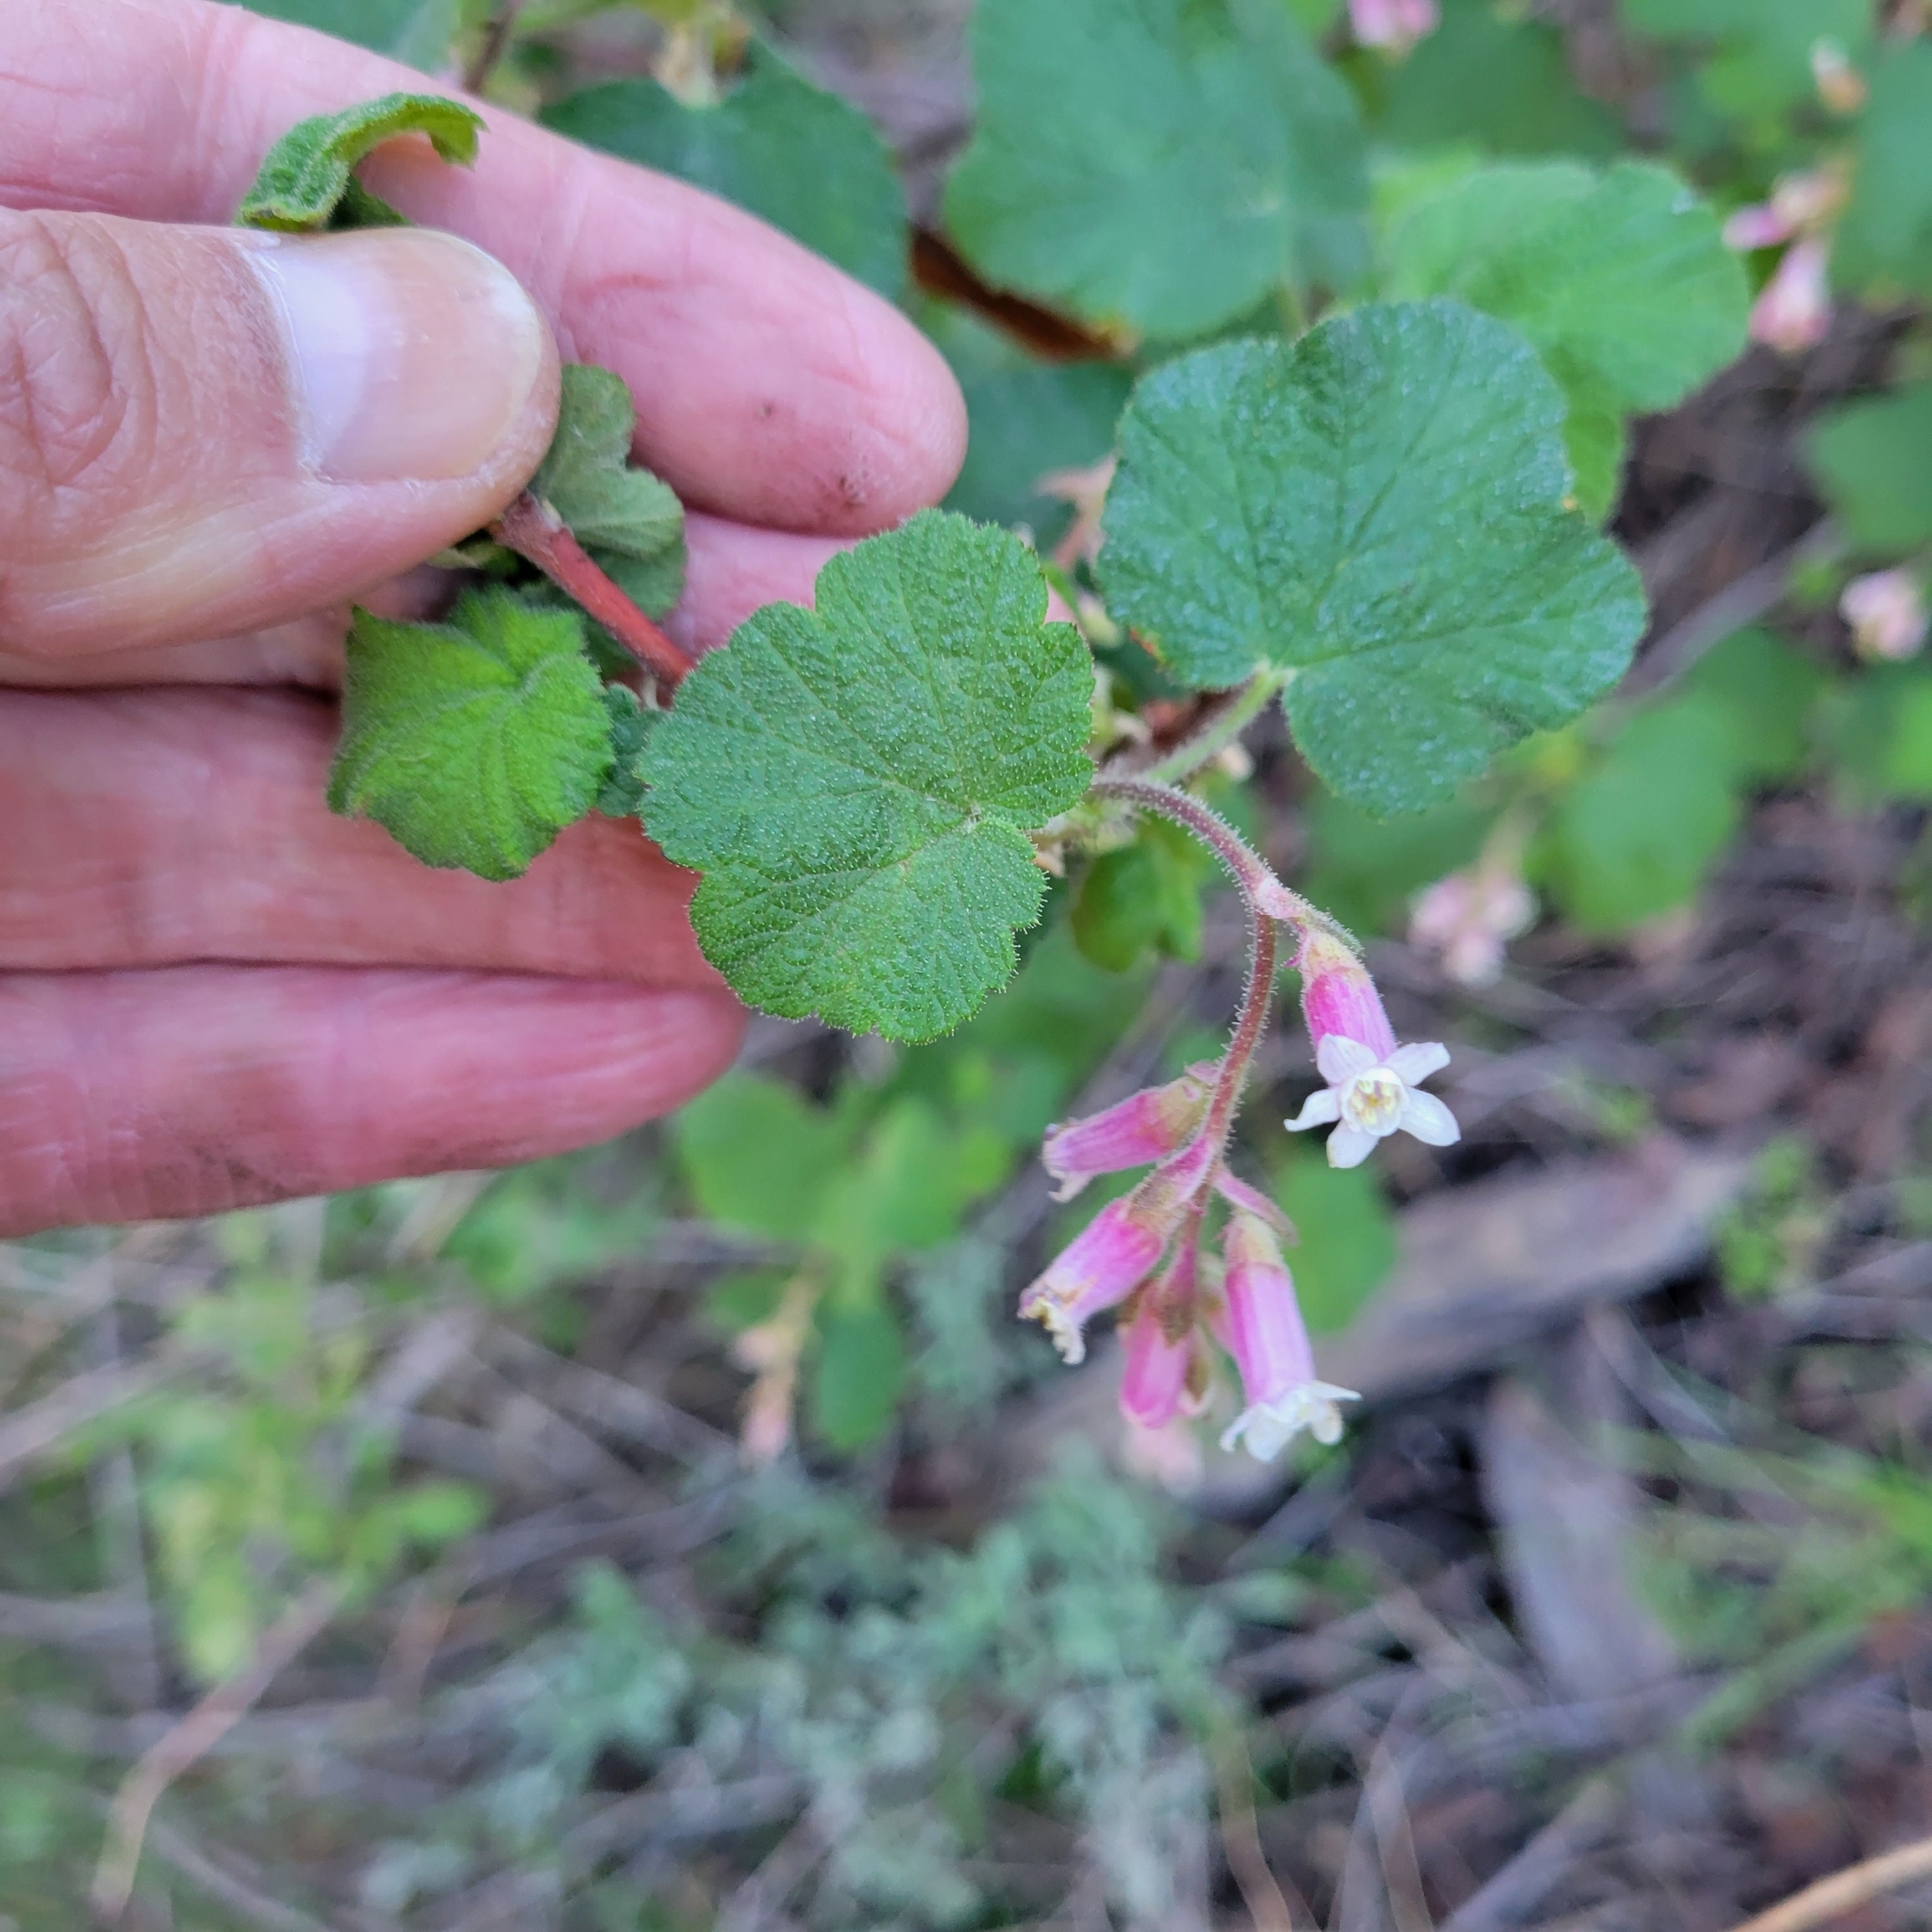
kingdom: Plantae
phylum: Tracheophyta
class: Magnoliopsida
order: Saxifragales
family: Grossulariaceae
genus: Ribes
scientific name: Ribes malvaceum
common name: Chaparral currant
